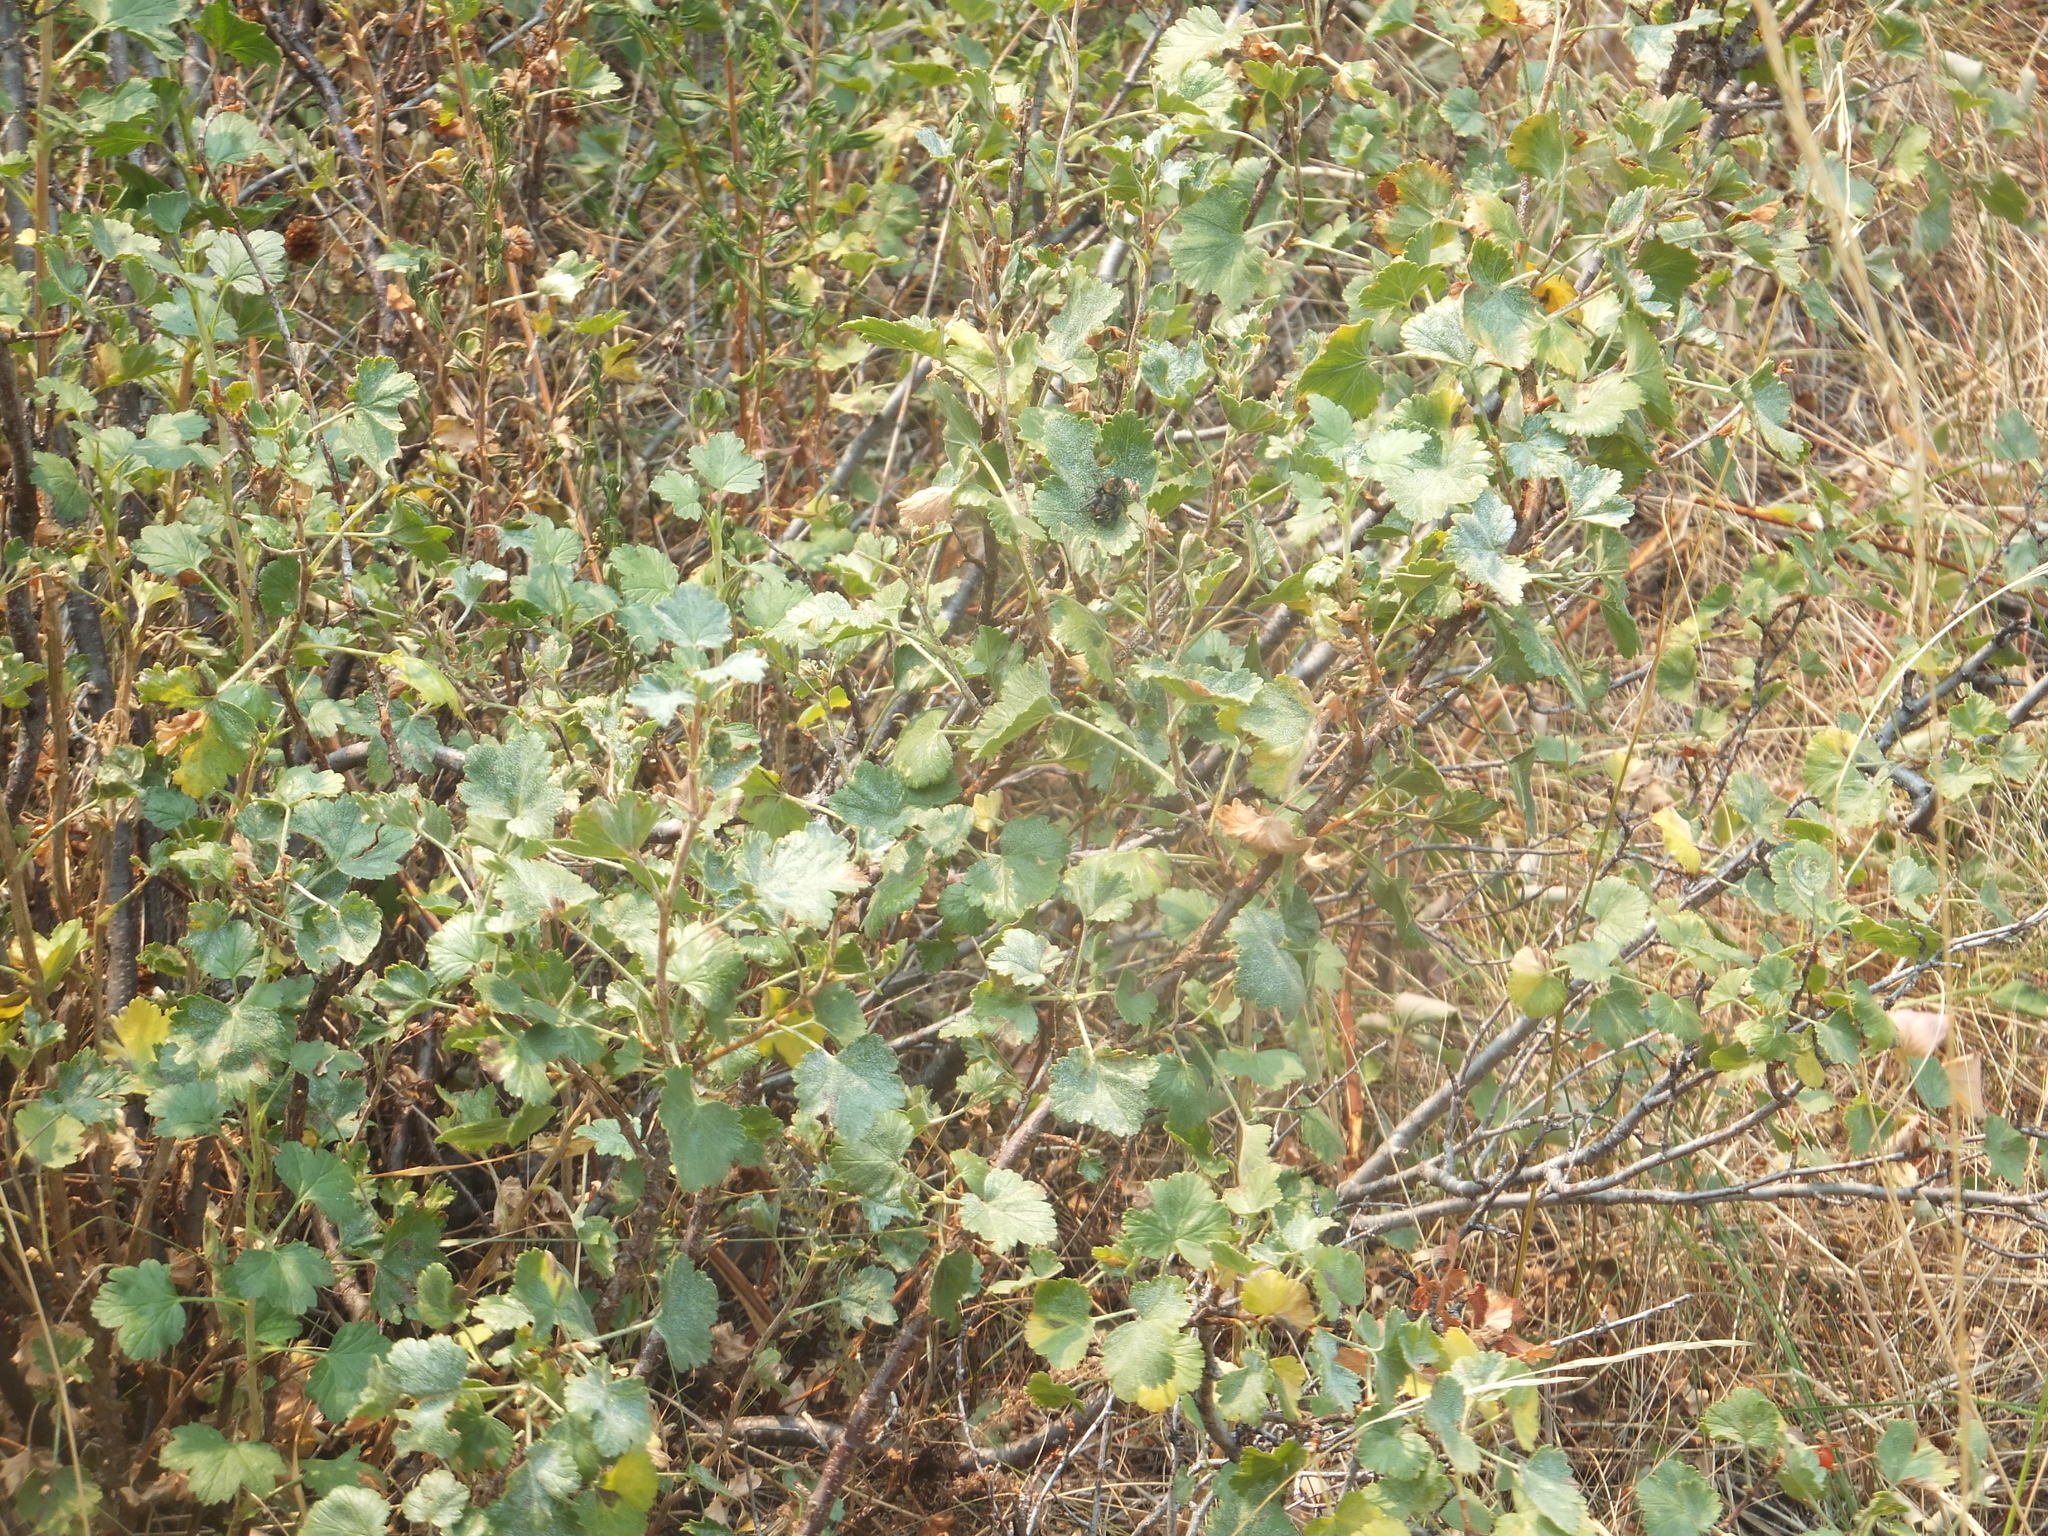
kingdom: Plantae
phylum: Tracheophyta
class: Magnoliopsida
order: Saxifragales
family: Grossulariaceae
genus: Ribes
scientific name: Ribes cereum
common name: Wax currant
